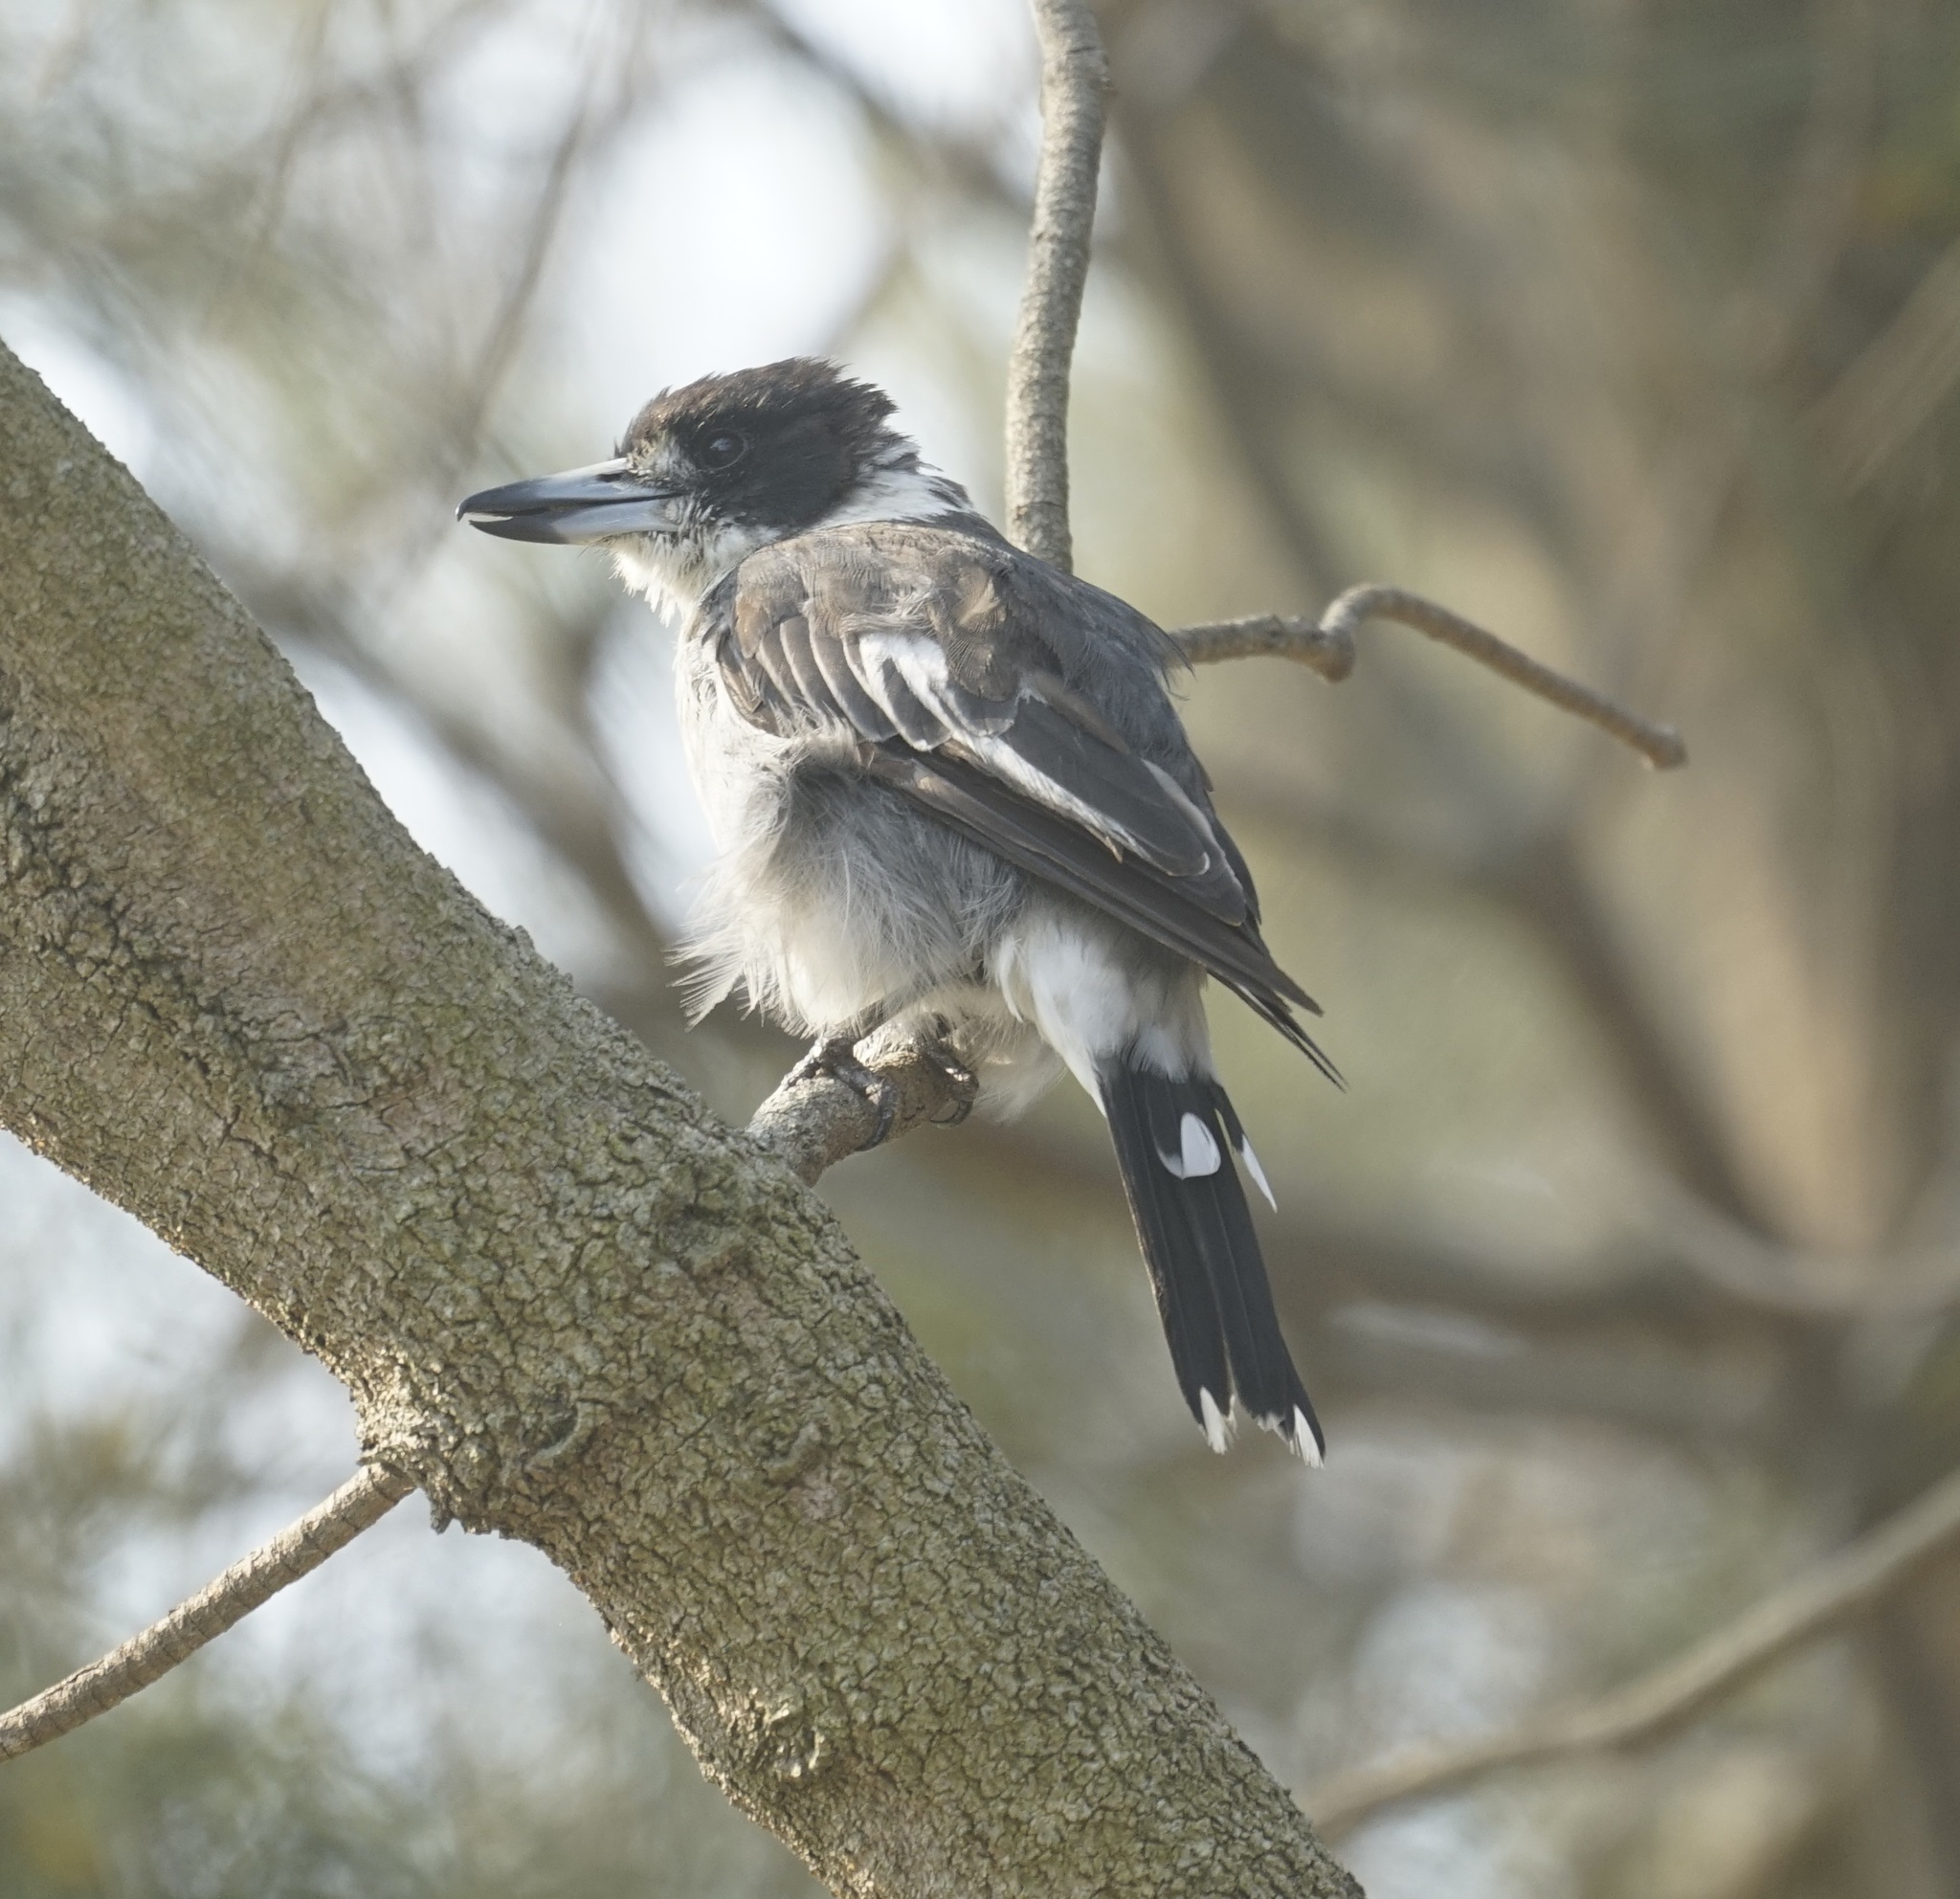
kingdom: Animalia
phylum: Chordata
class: Aves
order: Passeriformes
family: Cracticidae
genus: Cracticus
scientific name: Cracticus torquatus
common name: Grey butcherbird
